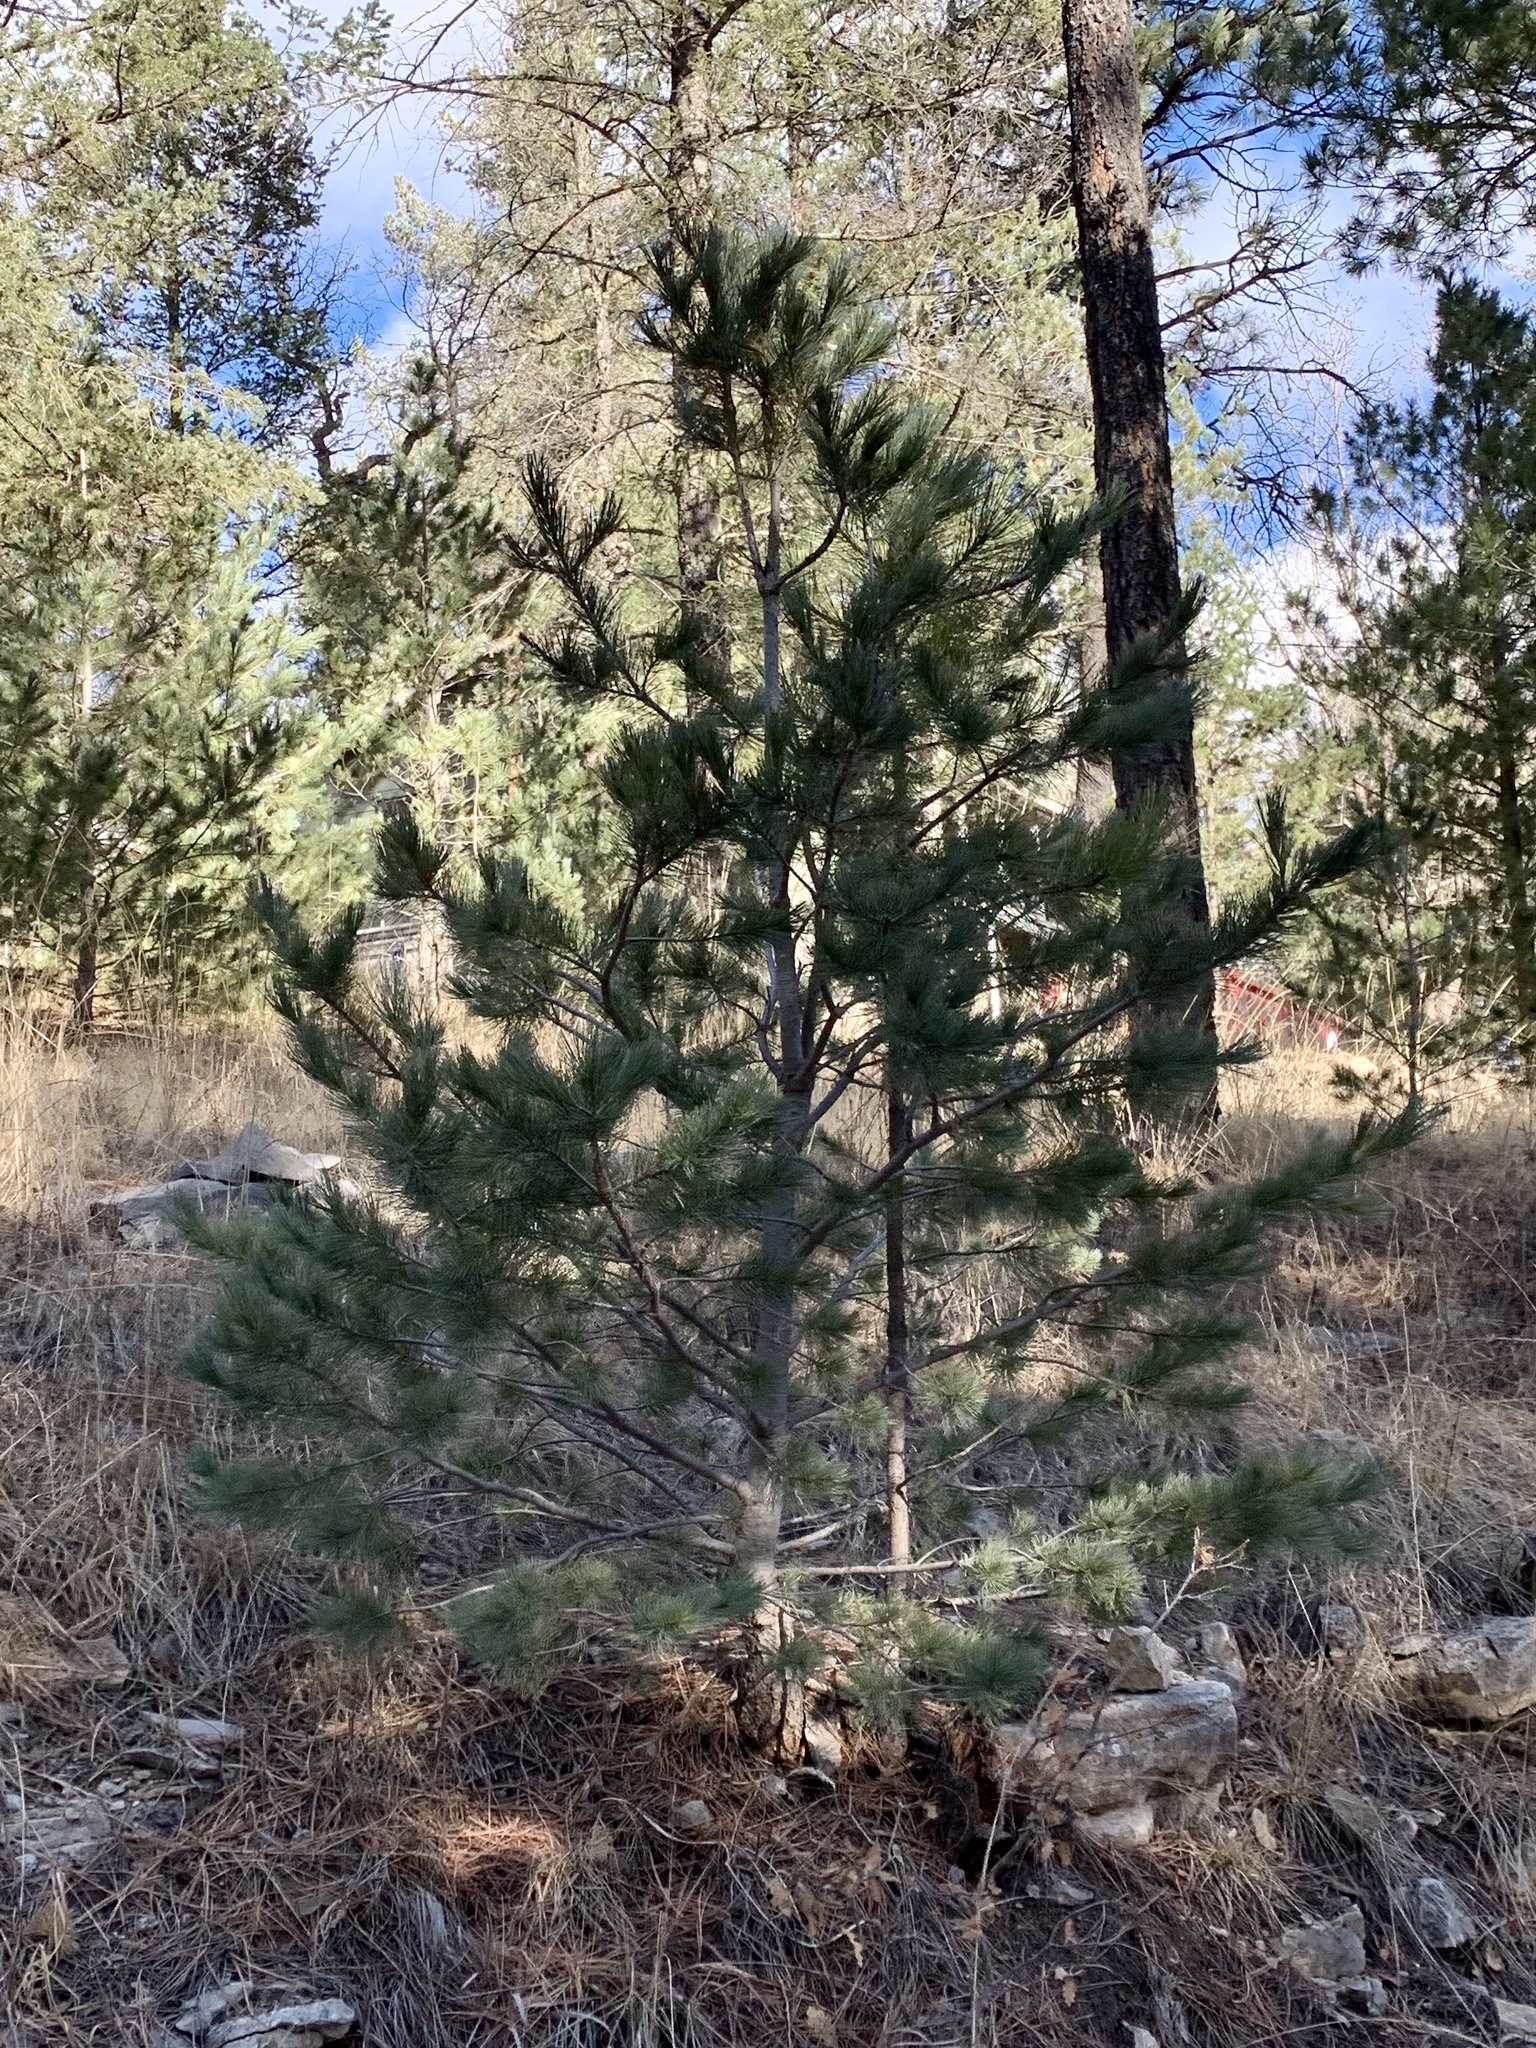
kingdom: Plantae
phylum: Tracheophyta
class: Pinopsida
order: Pinales
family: Pinaceae
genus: Pinus
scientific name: Pinus strobiformis
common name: Southwestern white pine
